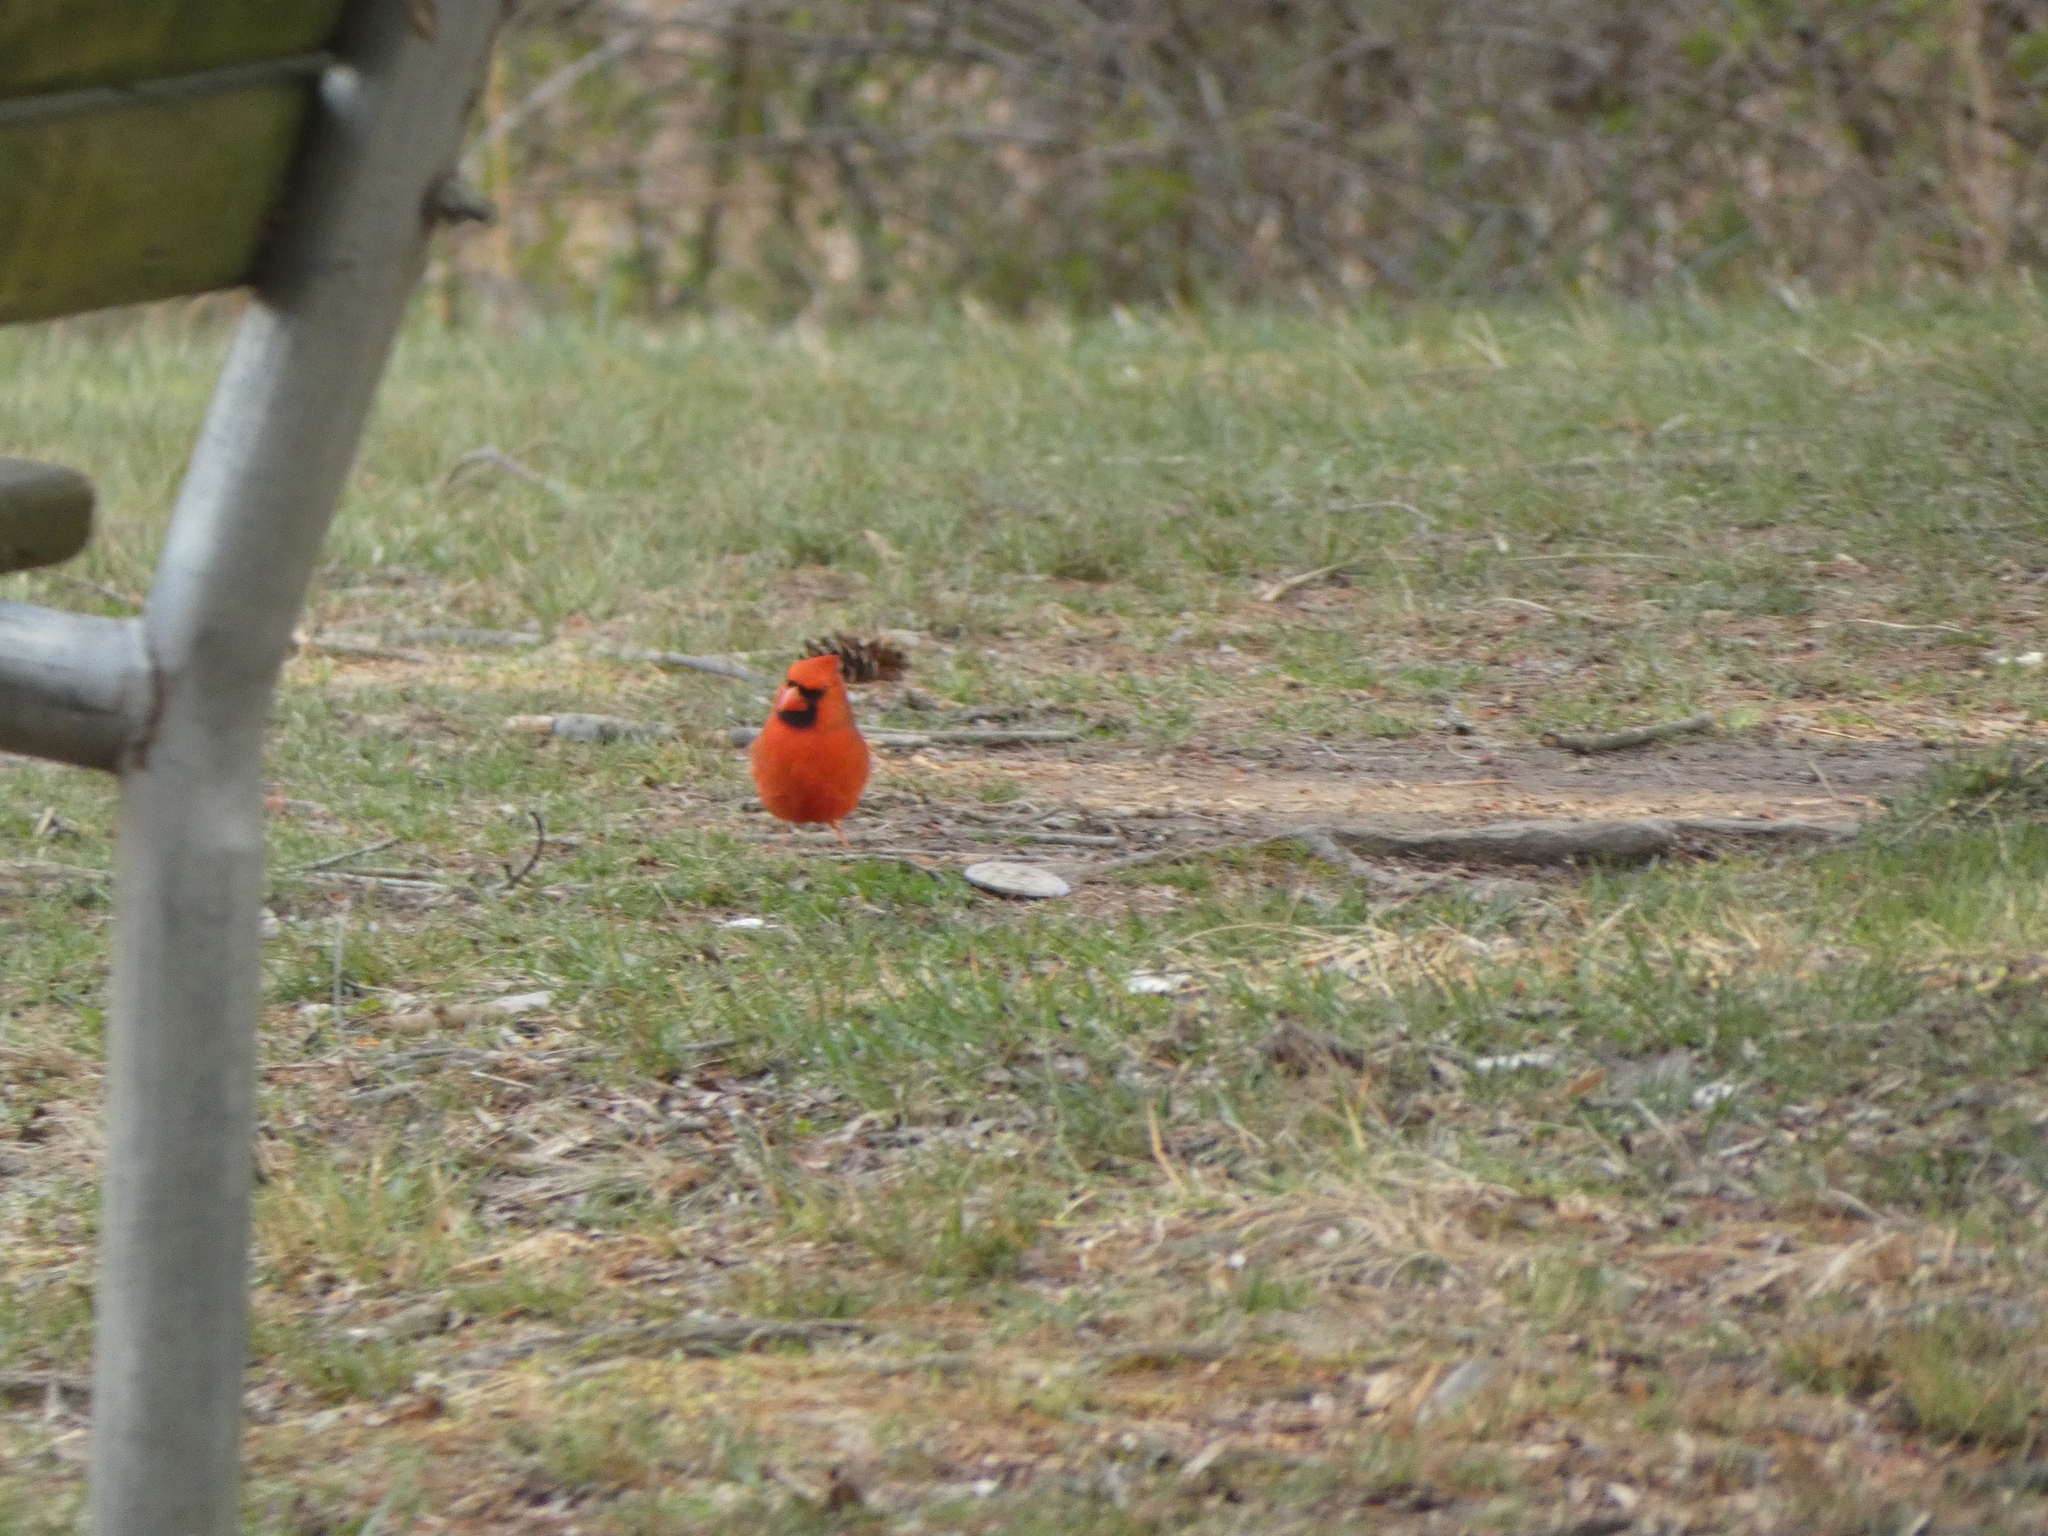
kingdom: Animalia
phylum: Chordata
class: Aves
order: Passeriformes
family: Cardinalidae
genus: Cardinalis
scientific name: Cardinalis cardinalis
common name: Northern cardinal
